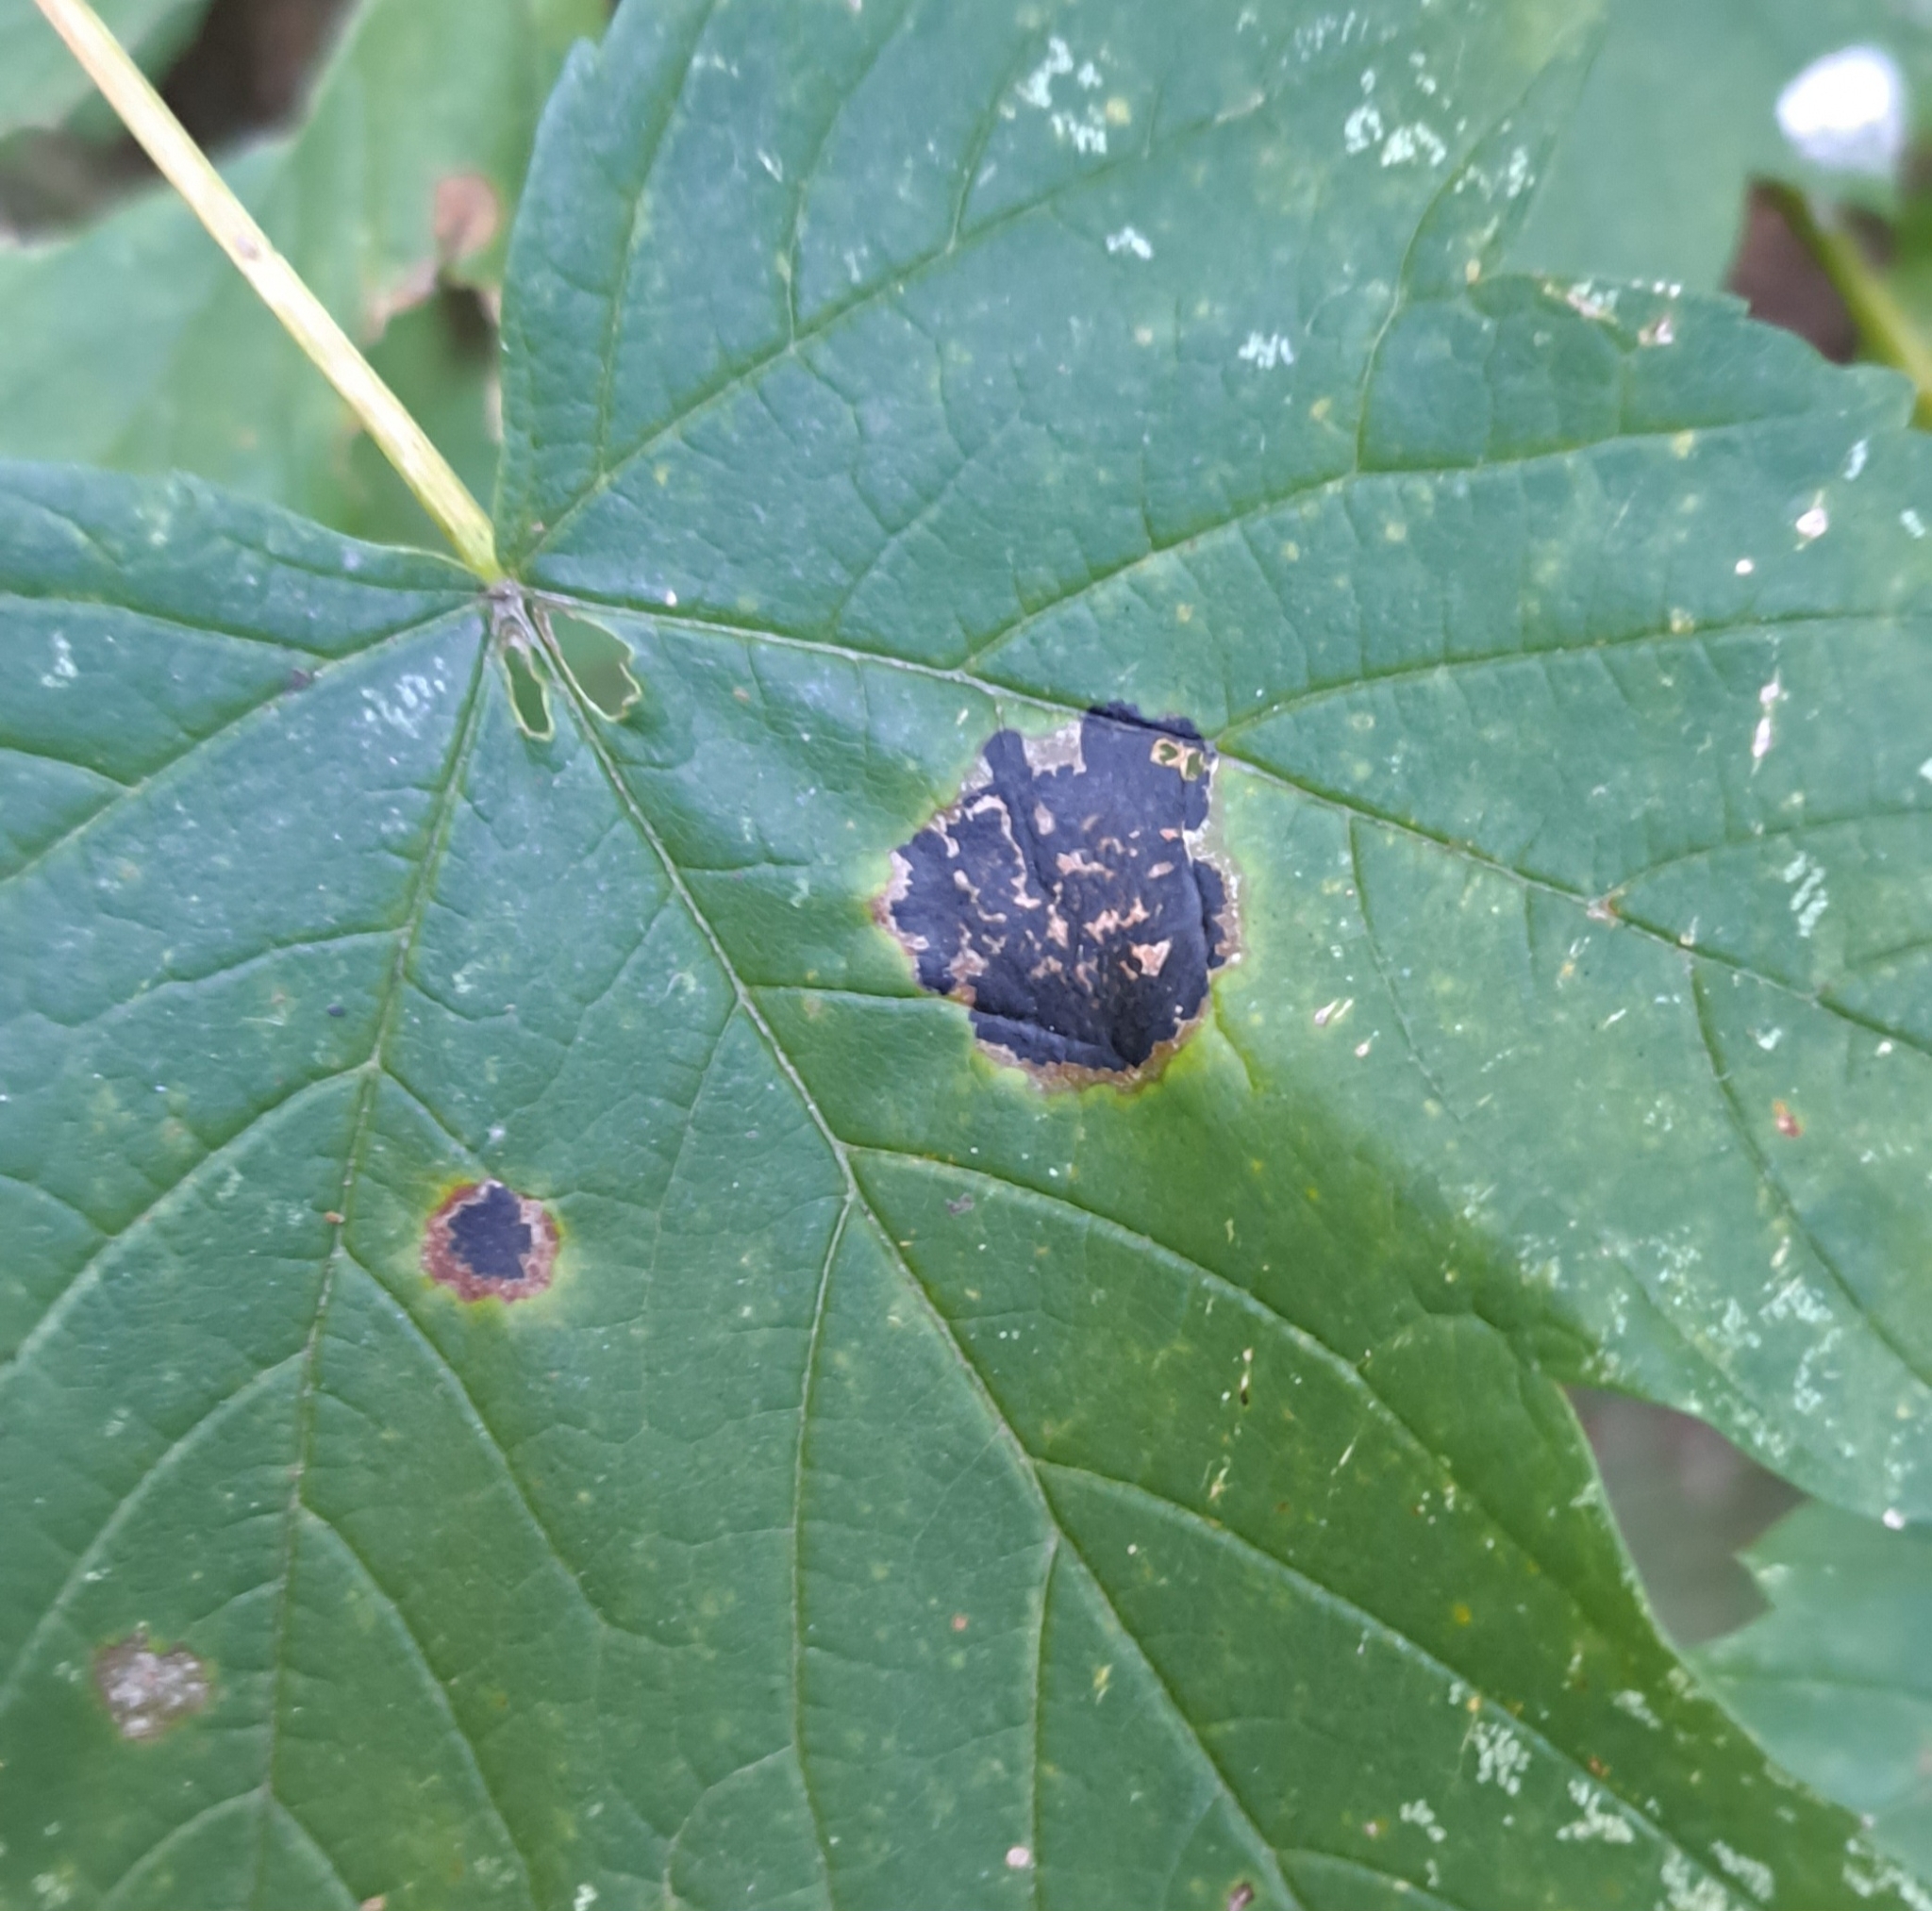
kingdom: Fungi
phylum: Ascomycota
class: Leotiomycetes
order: Rhytismatales
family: Rhytismataceae
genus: Rhytisma
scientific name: Rhytisma acerinum
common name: European tar spot
